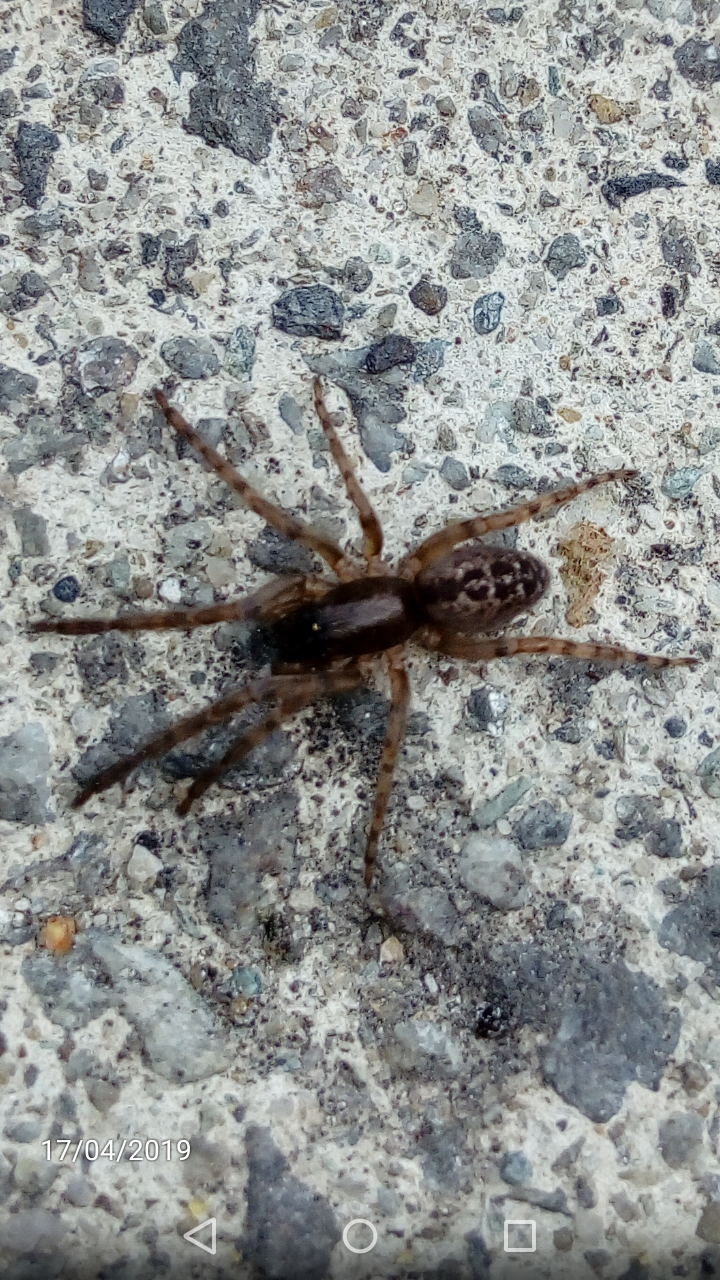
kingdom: Animalia
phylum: Arthropoda
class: Arachnida
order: Araneae
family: Segestriidae
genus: Segestria
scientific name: Segestria bavarica
